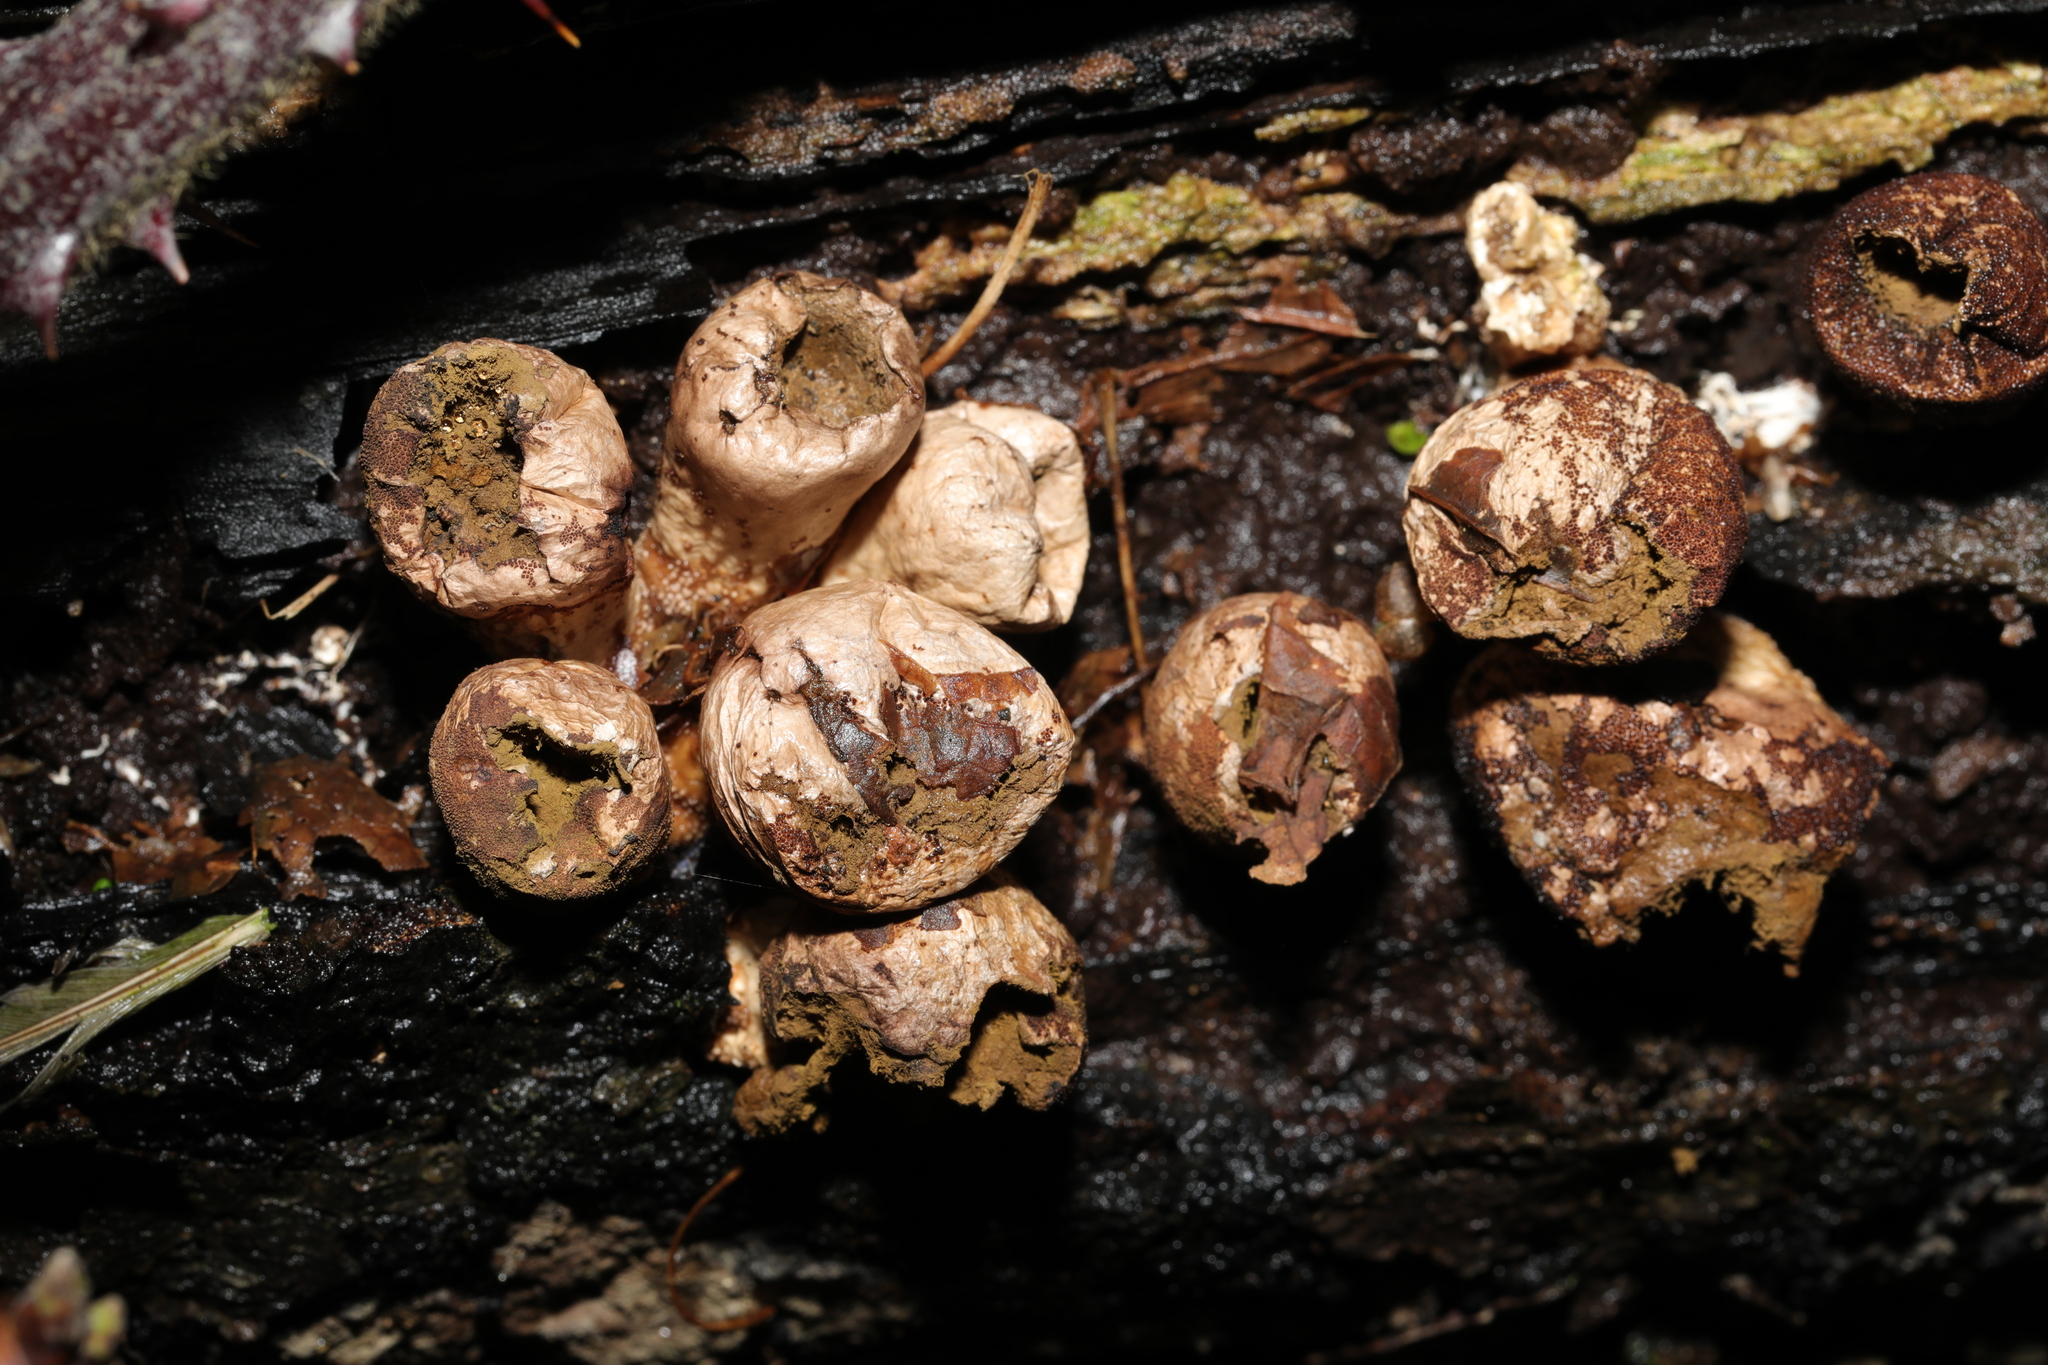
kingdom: Fungi
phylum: Basidiomycota
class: Agaricomycetes
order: Agaricales
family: Lycoperdaceae
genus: Apioperdon
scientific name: Apioperdon pyriforme
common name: Pear-shaped puffball
